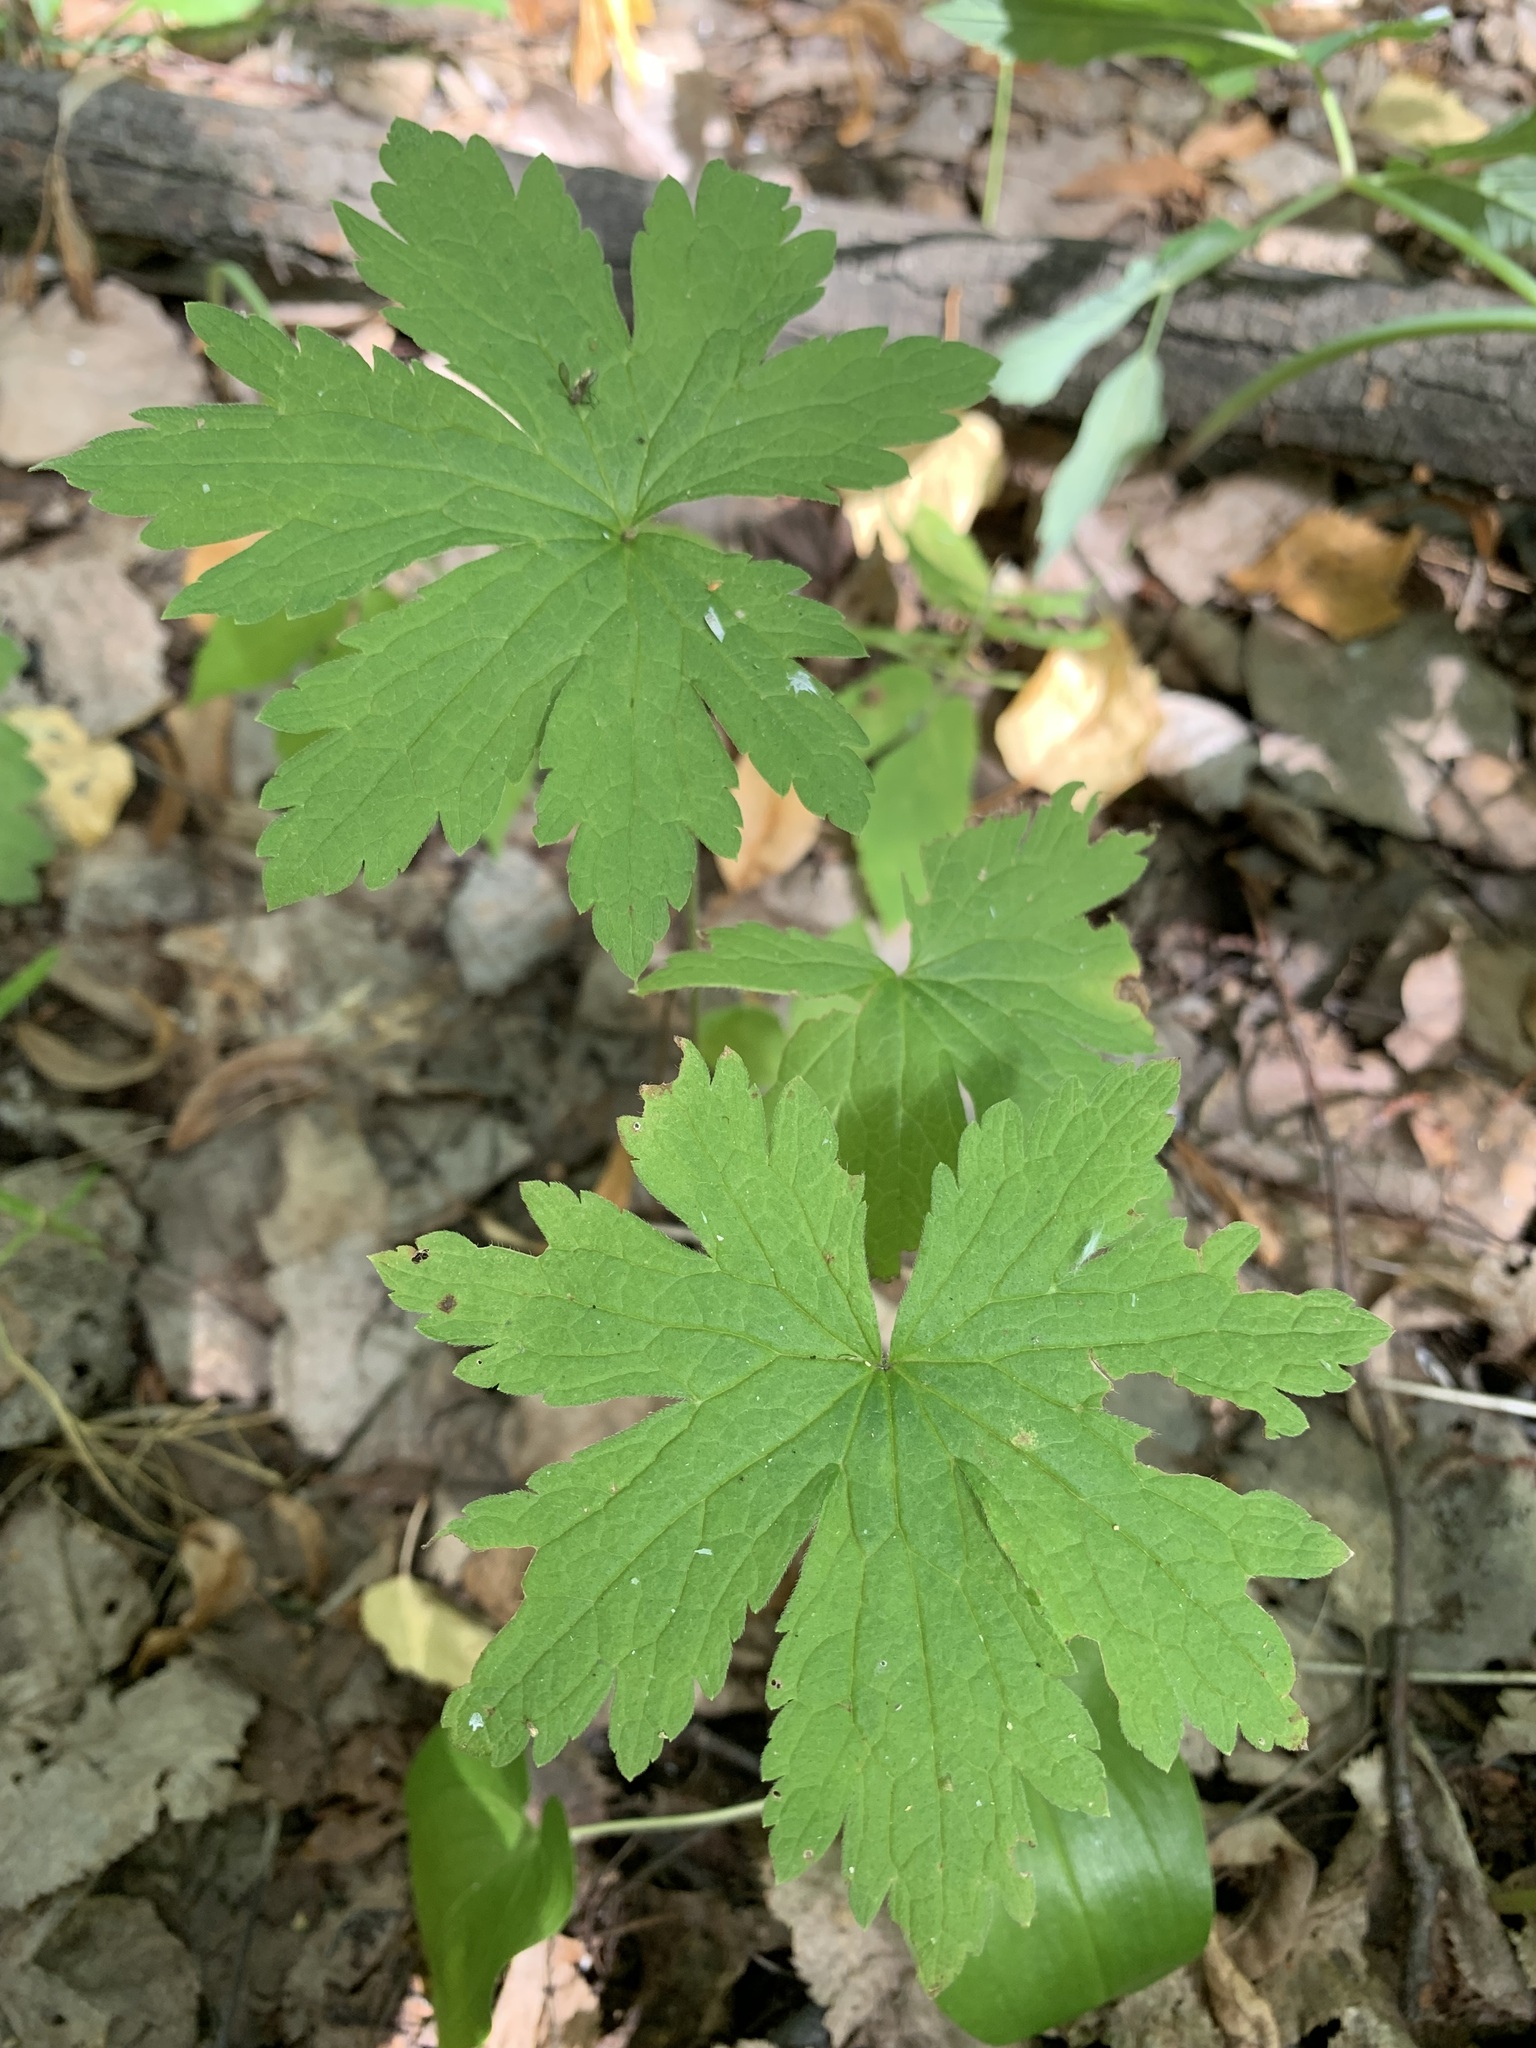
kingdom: Plantae
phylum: Tracheophyta
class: Magnoliopsida
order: Geraniales
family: Geraniaceae
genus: Geranium
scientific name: Geranium sylvaticum
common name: Wood crane's-bill
